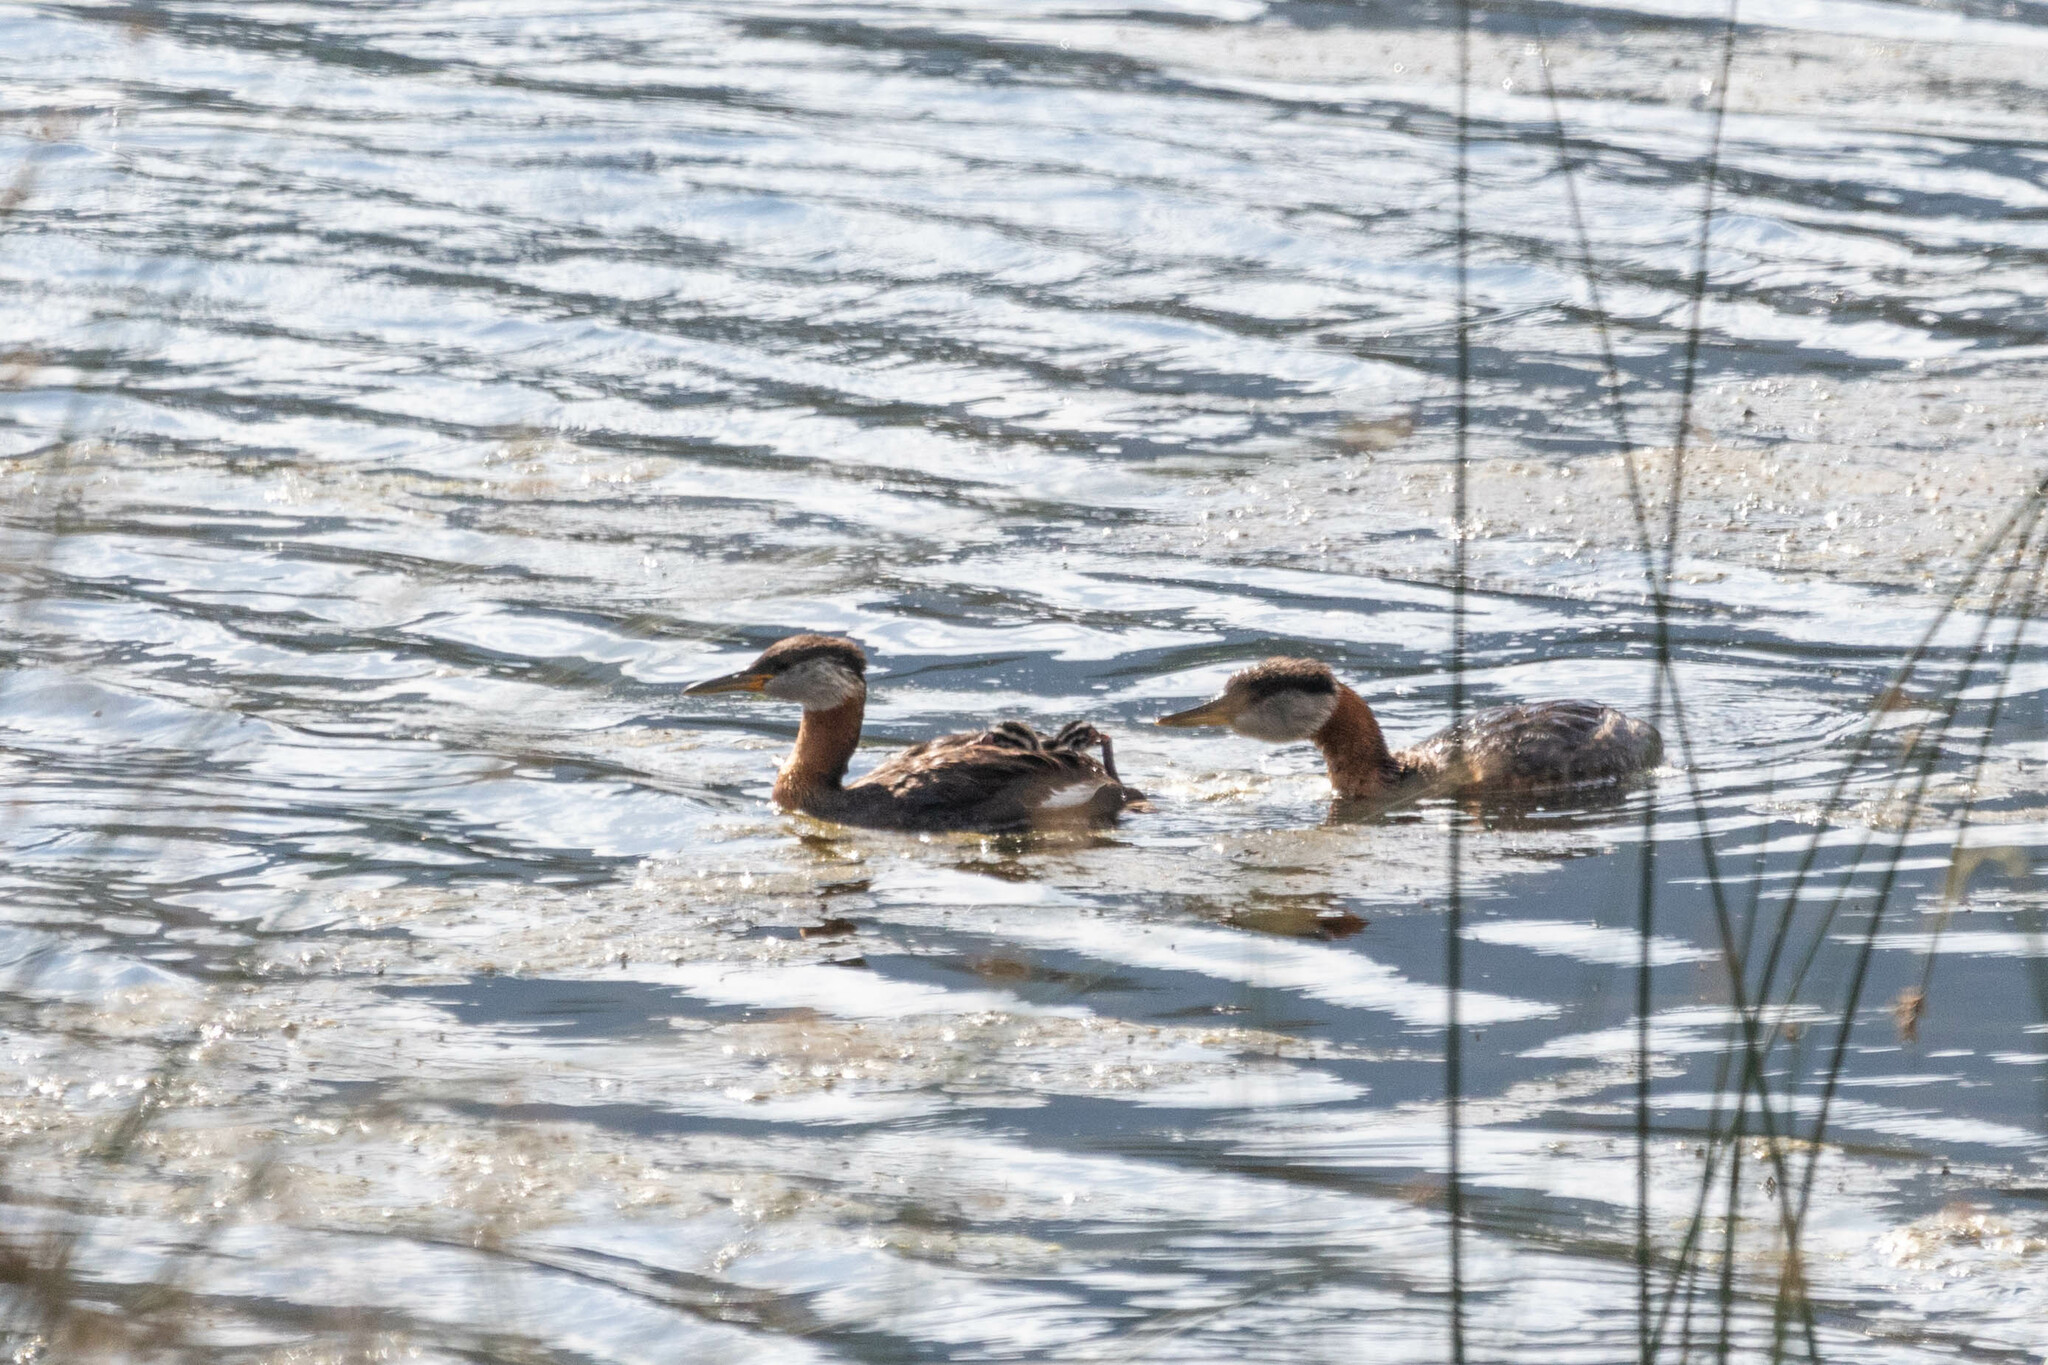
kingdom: Animalia
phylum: Chordata
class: Aves
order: Podicipediformes
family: Podicipedidae
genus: Podiceps
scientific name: Podiceps grisegena
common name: Red-necked grebe
